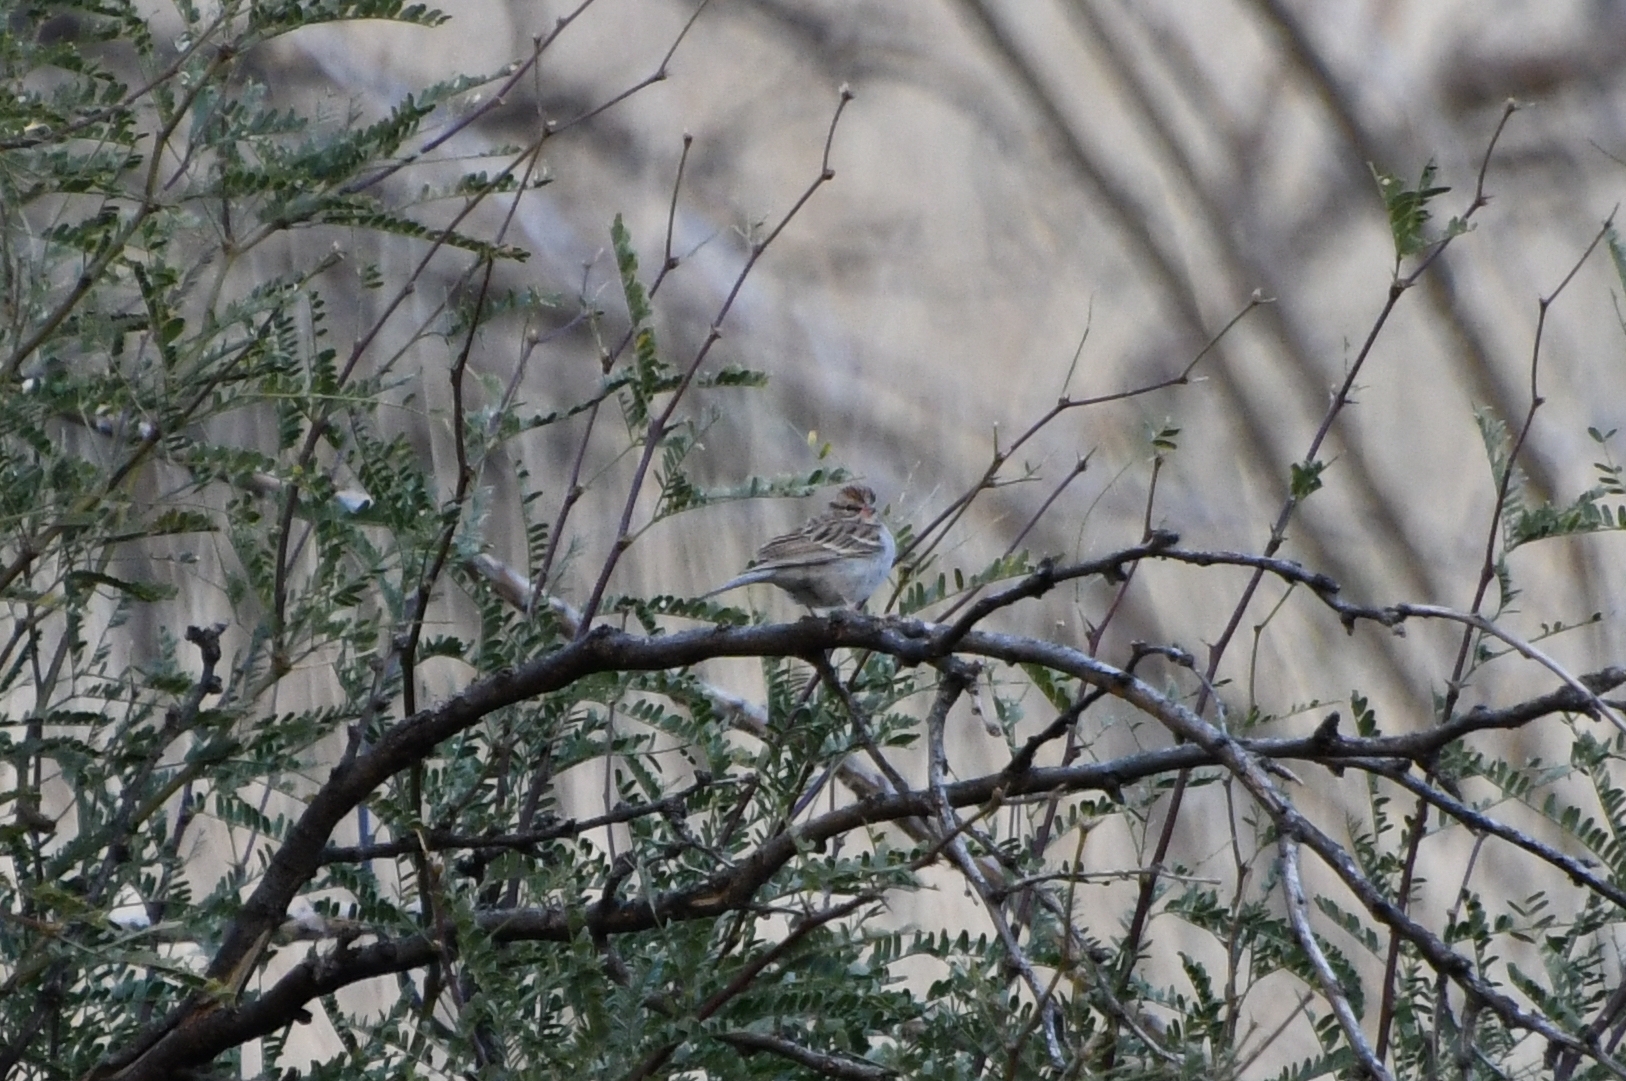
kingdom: Animalia
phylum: Chordata
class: Aves
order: Passeriformes
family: Passerellidae
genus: Spizella
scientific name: Spizella passerina
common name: Chipping sparrow
